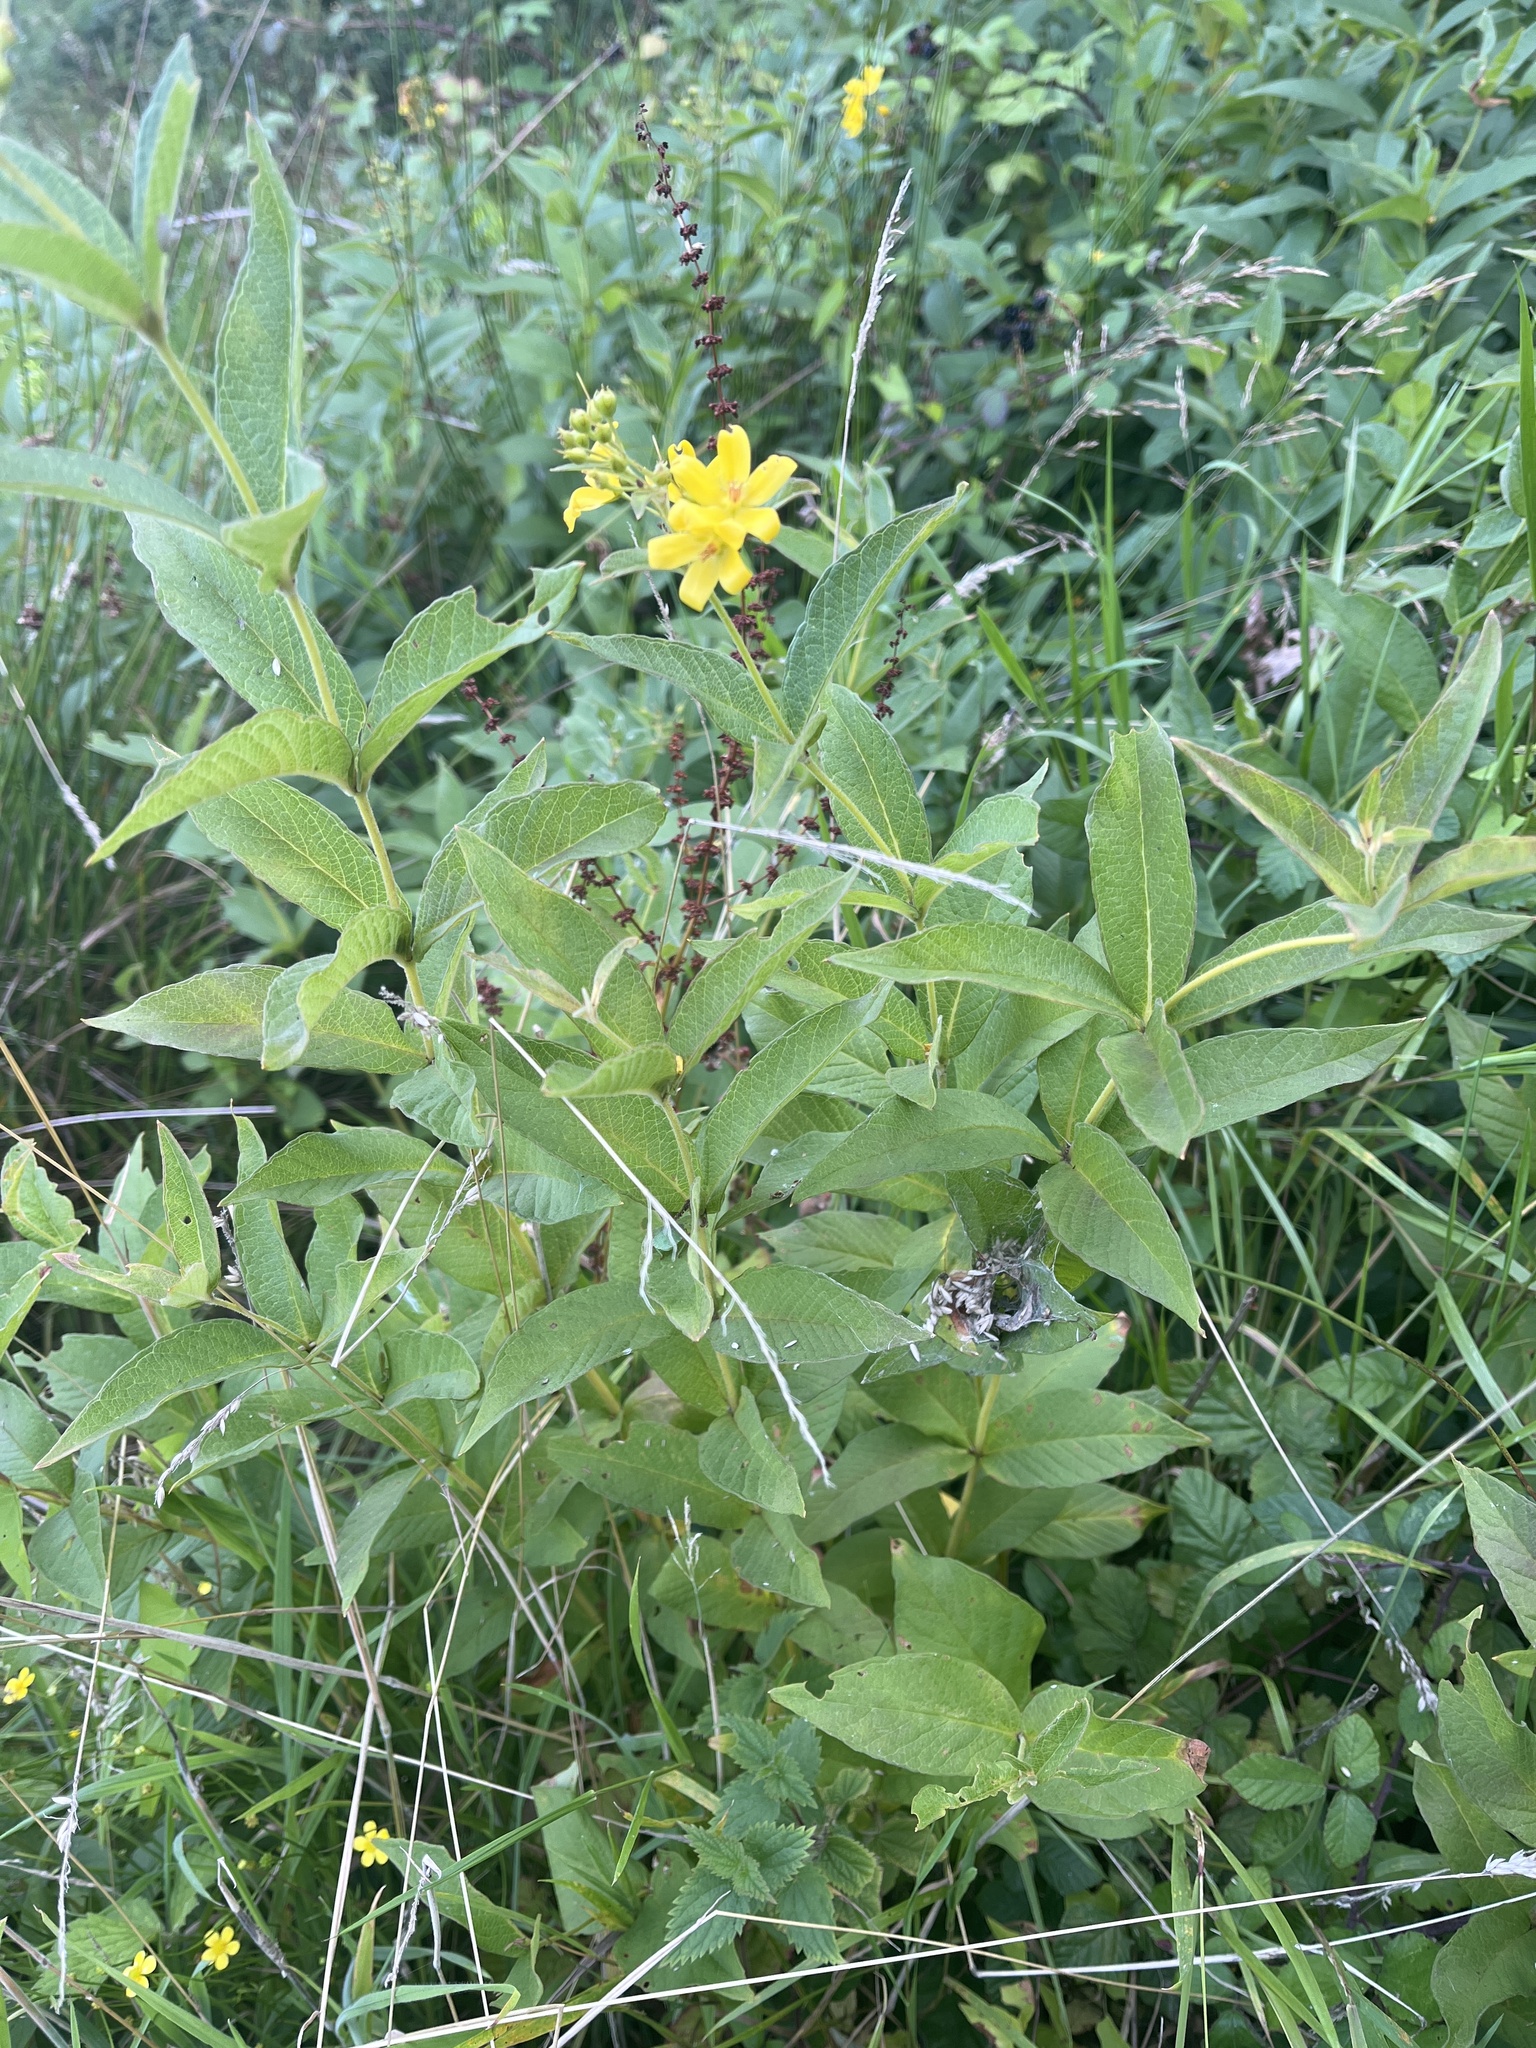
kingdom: Plantae
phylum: Tracheophyta
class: Magnoliopsida
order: Ericales
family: Primulaceae
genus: Lysimachia
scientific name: Lysimachia vulgaris
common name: Yellow loosestrife
